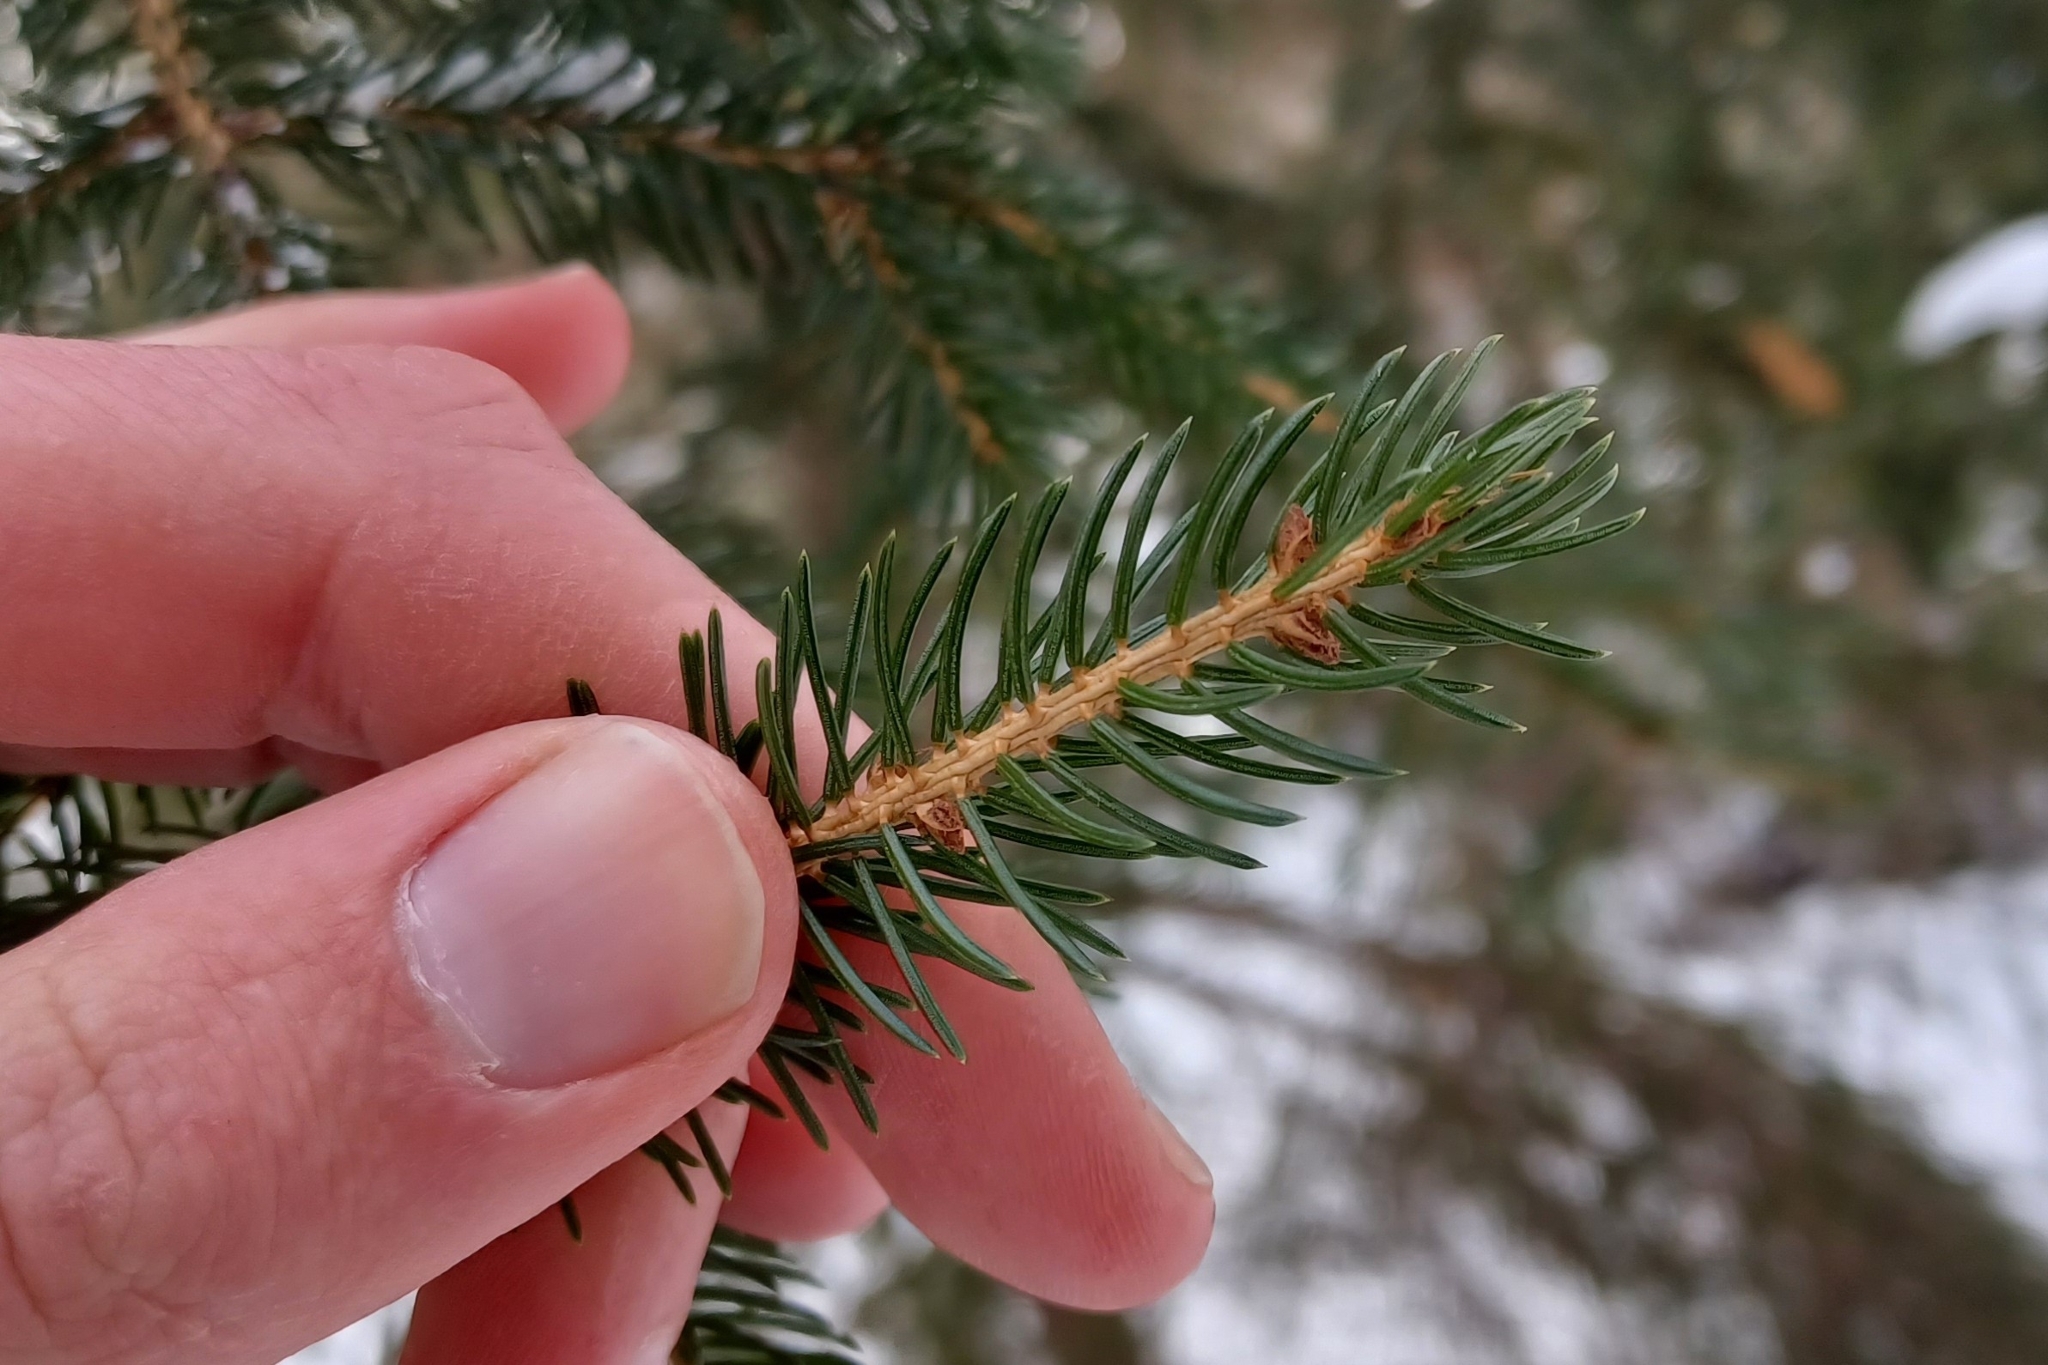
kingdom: Plantae
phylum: Tracheophyta
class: Pinopsida
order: Pinales
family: Pinaceae
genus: Picea
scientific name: Picea rubens
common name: Red spruce
